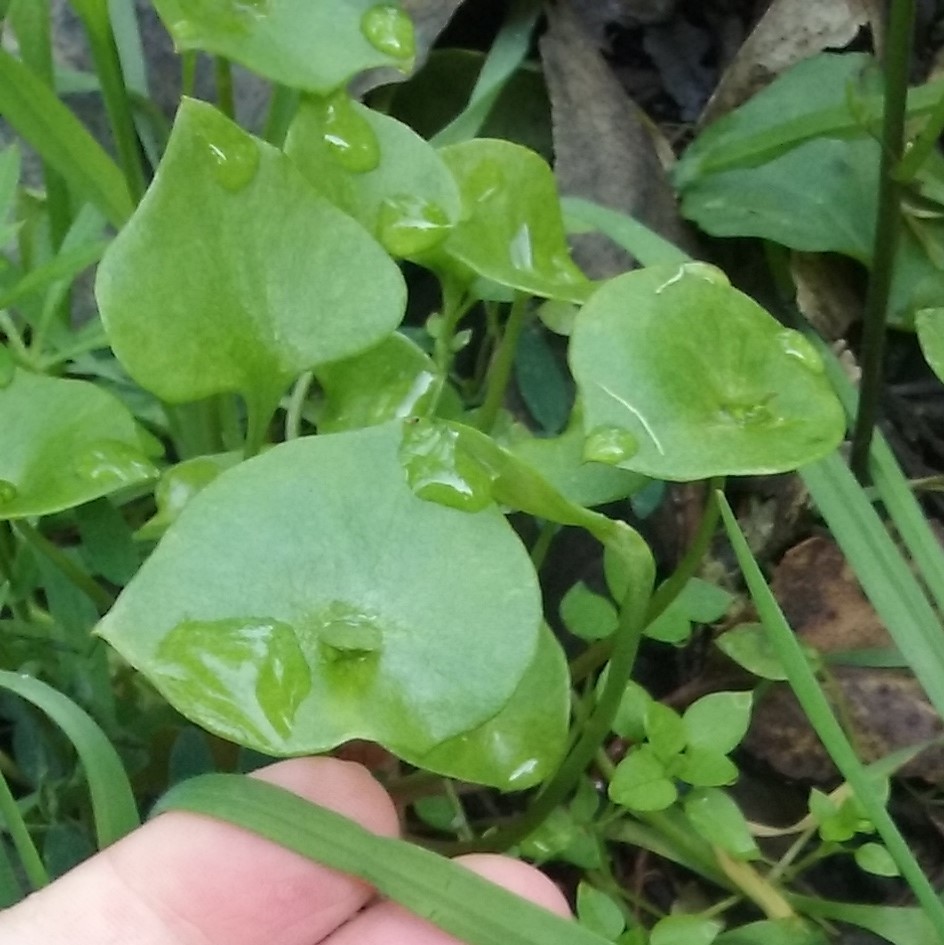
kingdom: Plantae
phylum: Tracheophyta
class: Magnoliopsida
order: Caryophyllales
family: Montiaceae
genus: Claytonia
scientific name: Claytonia perfoliata
